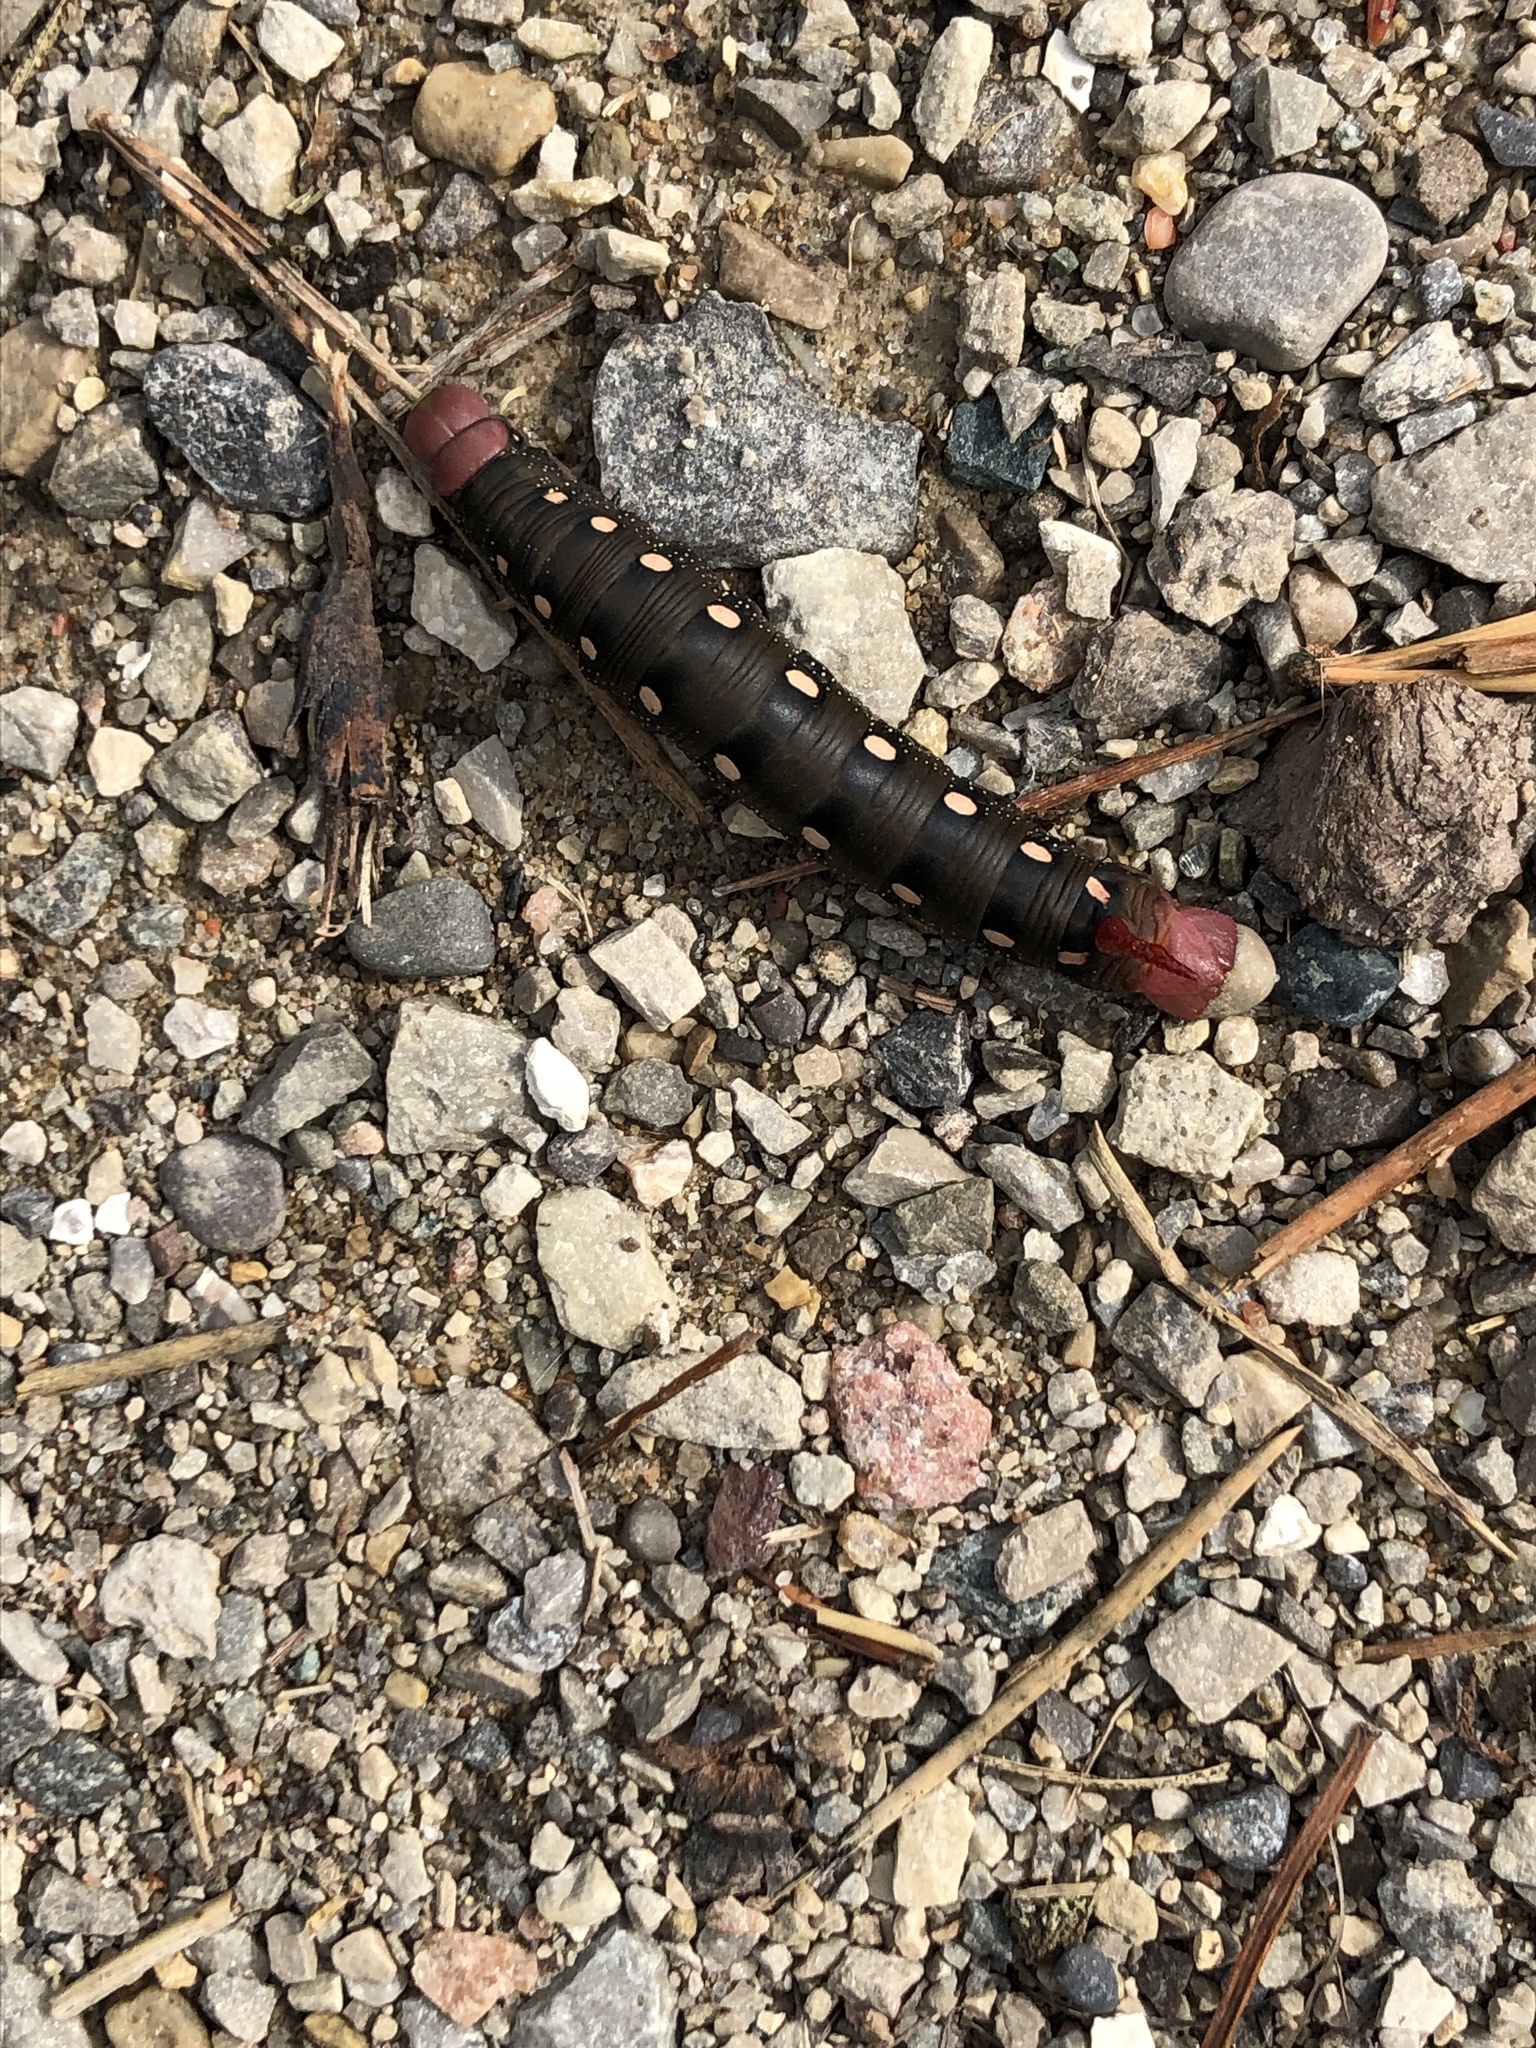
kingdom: Animalia
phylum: Arthropoda
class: Insecta
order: Lepidoptera
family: Sphingidae
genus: Hyles
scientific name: Hyles gallii
